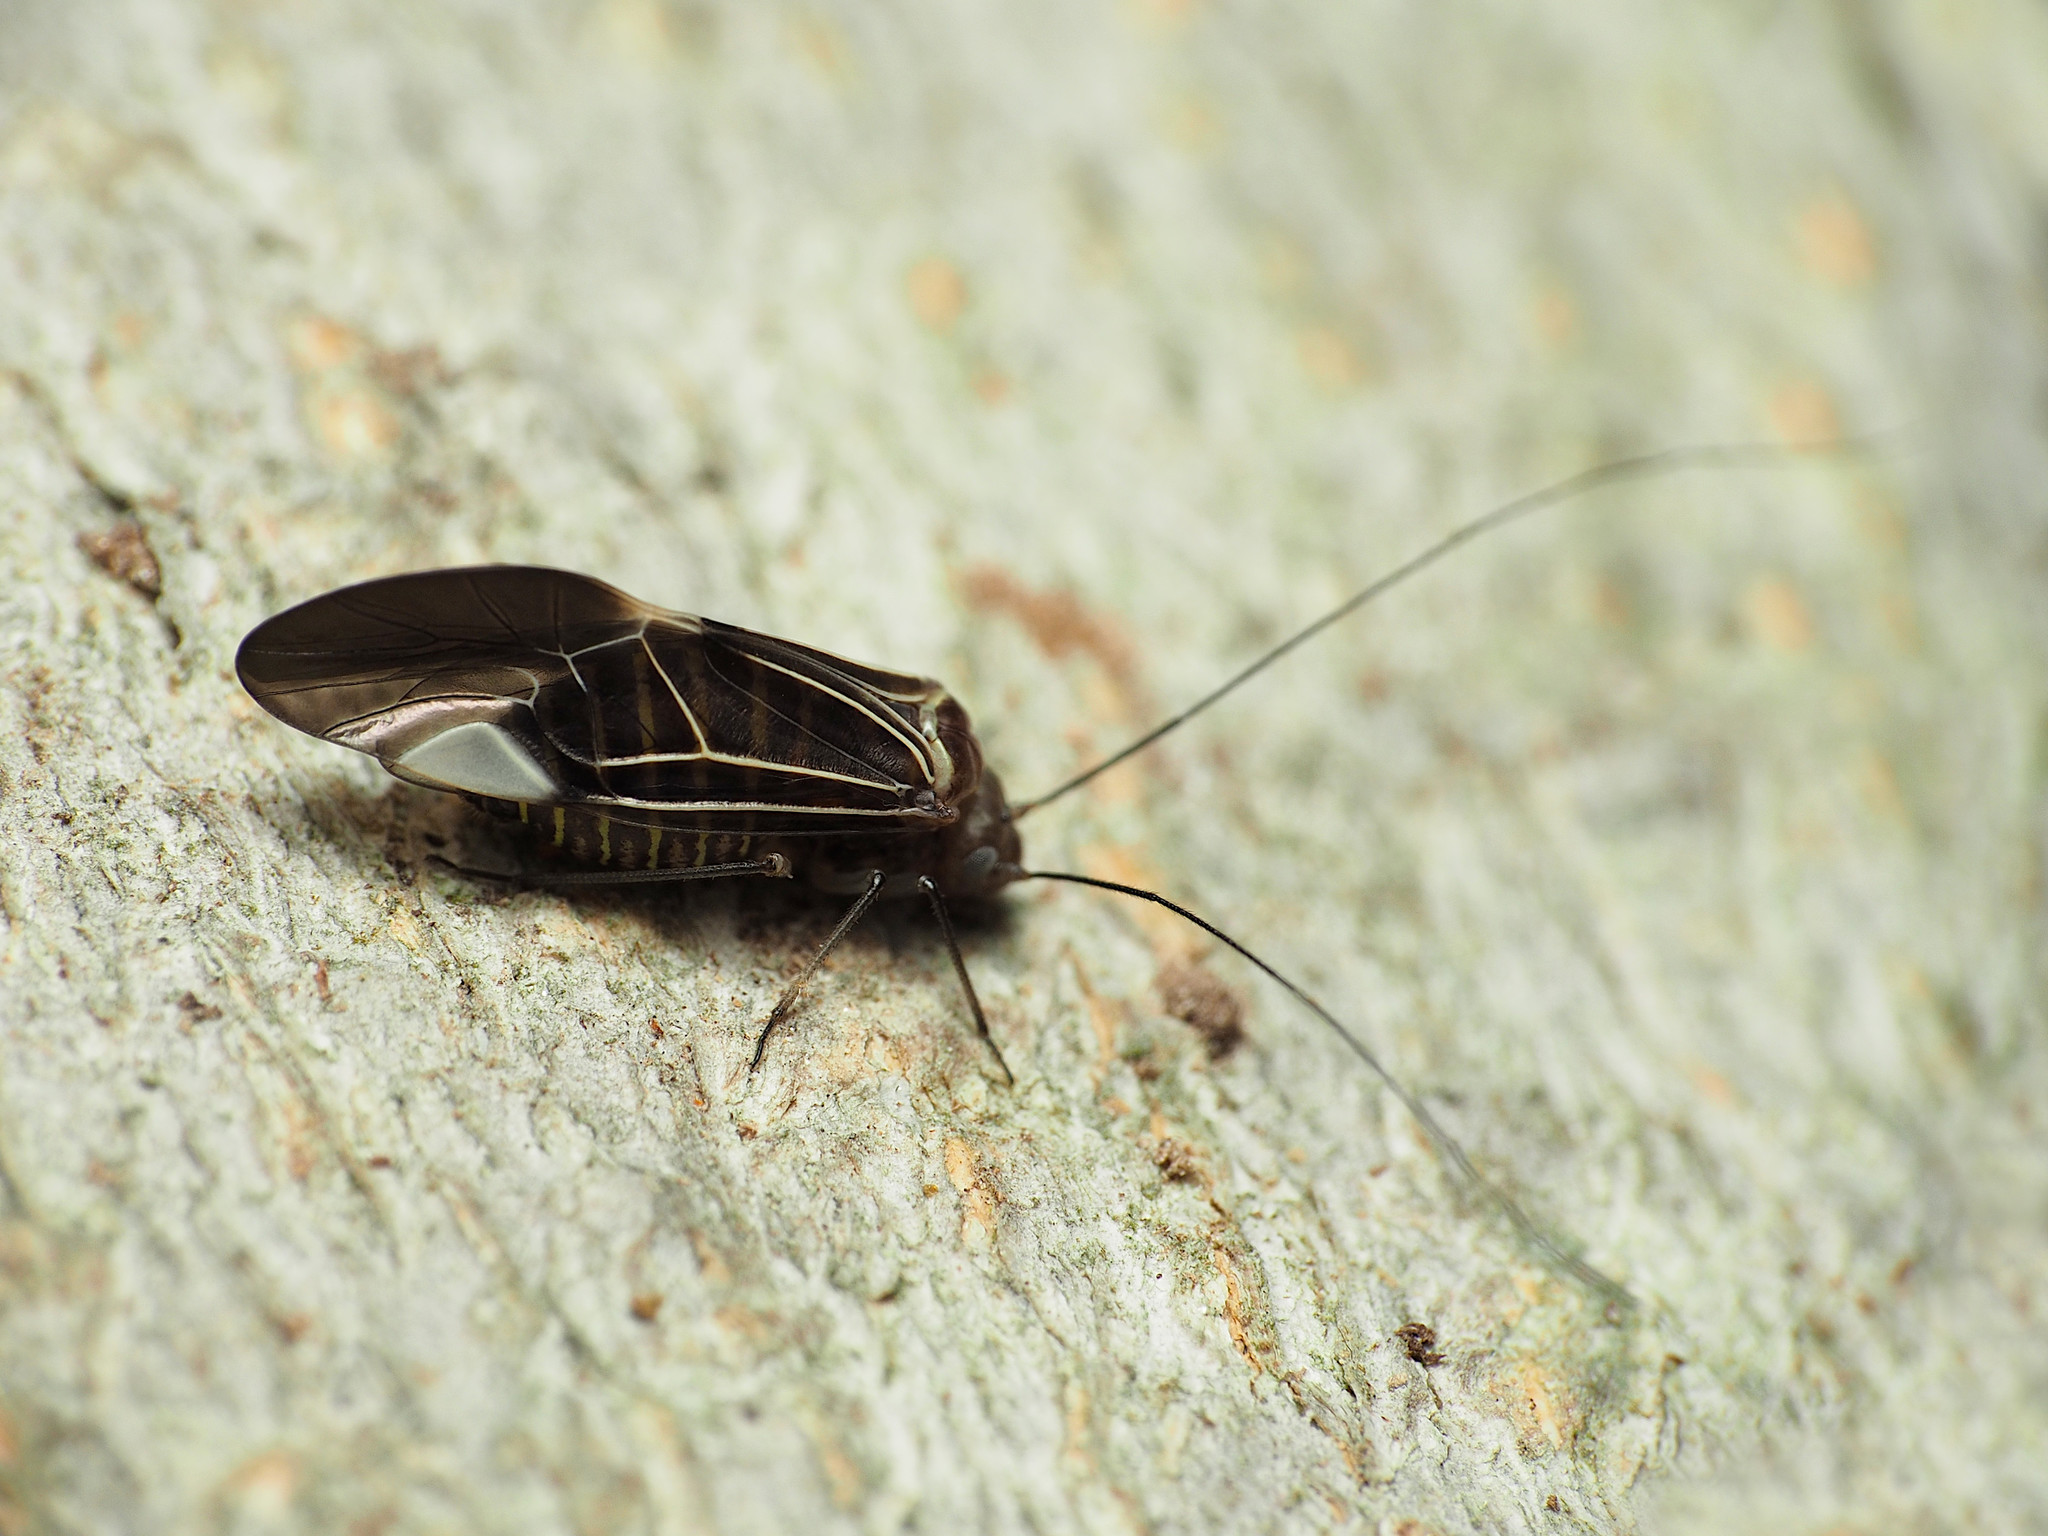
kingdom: Animalia
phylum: Arthropoda
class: Insecta
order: Psocodea
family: Psocidae
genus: Cerastipsocus
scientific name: Cerastipsocus venosus
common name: Tree cattle
